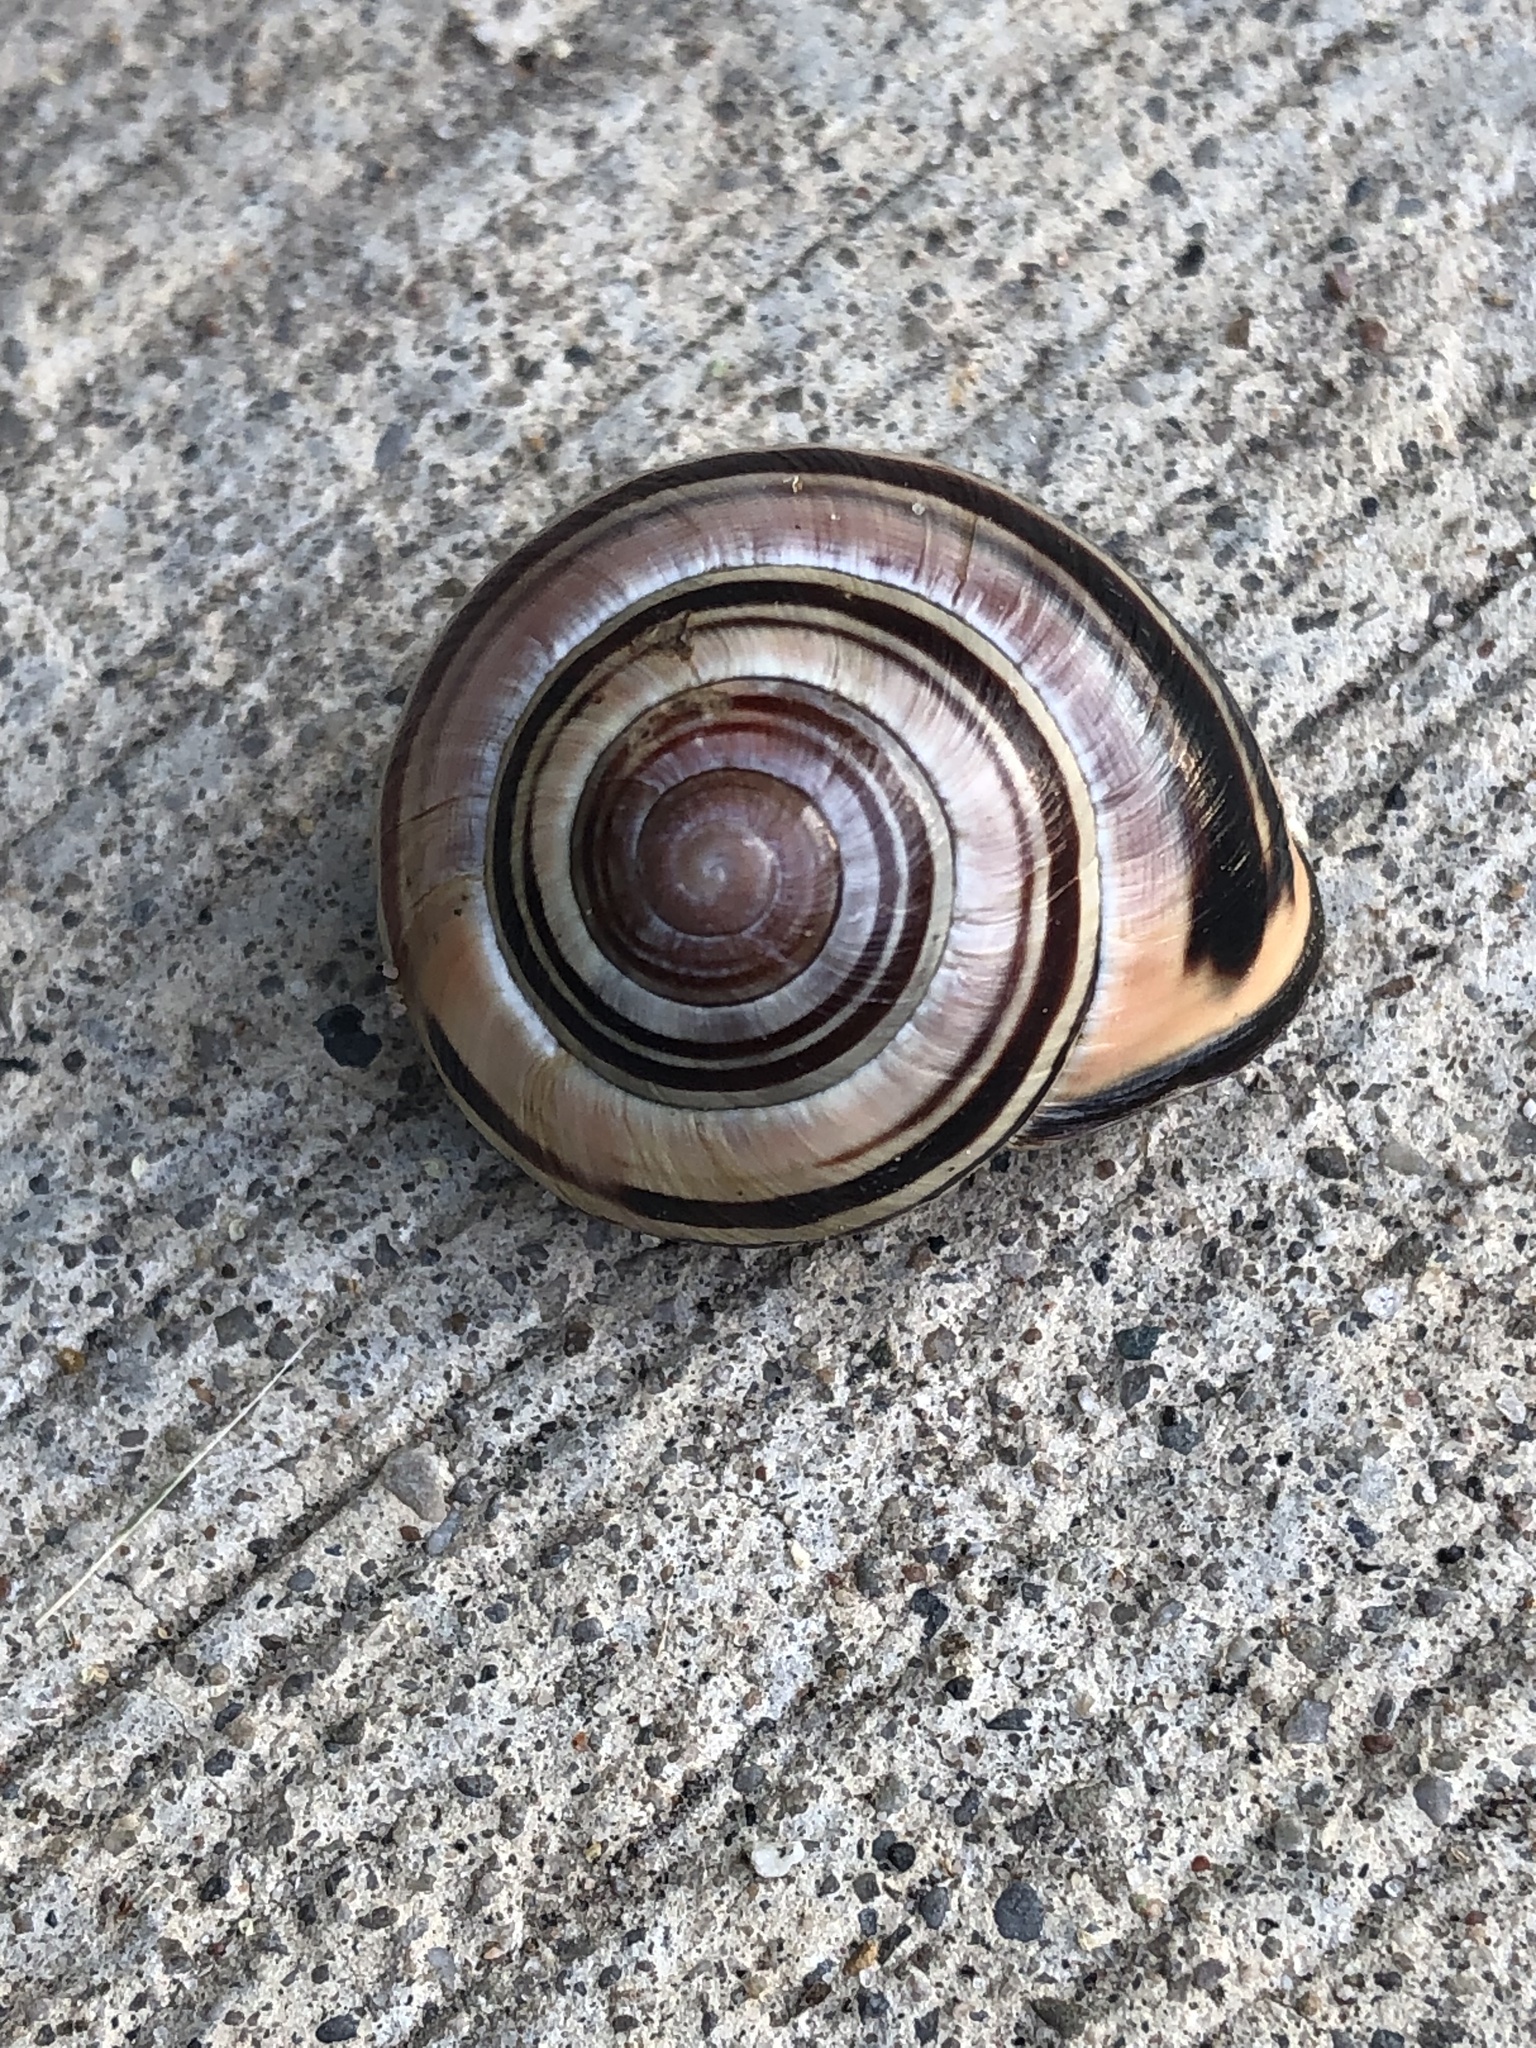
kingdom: Animalia
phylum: Mollusca
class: Gastropoda
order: Stylommatophora
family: Helicidae
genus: Cepaea
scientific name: Cepaea nemoralis
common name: Grovesnail
